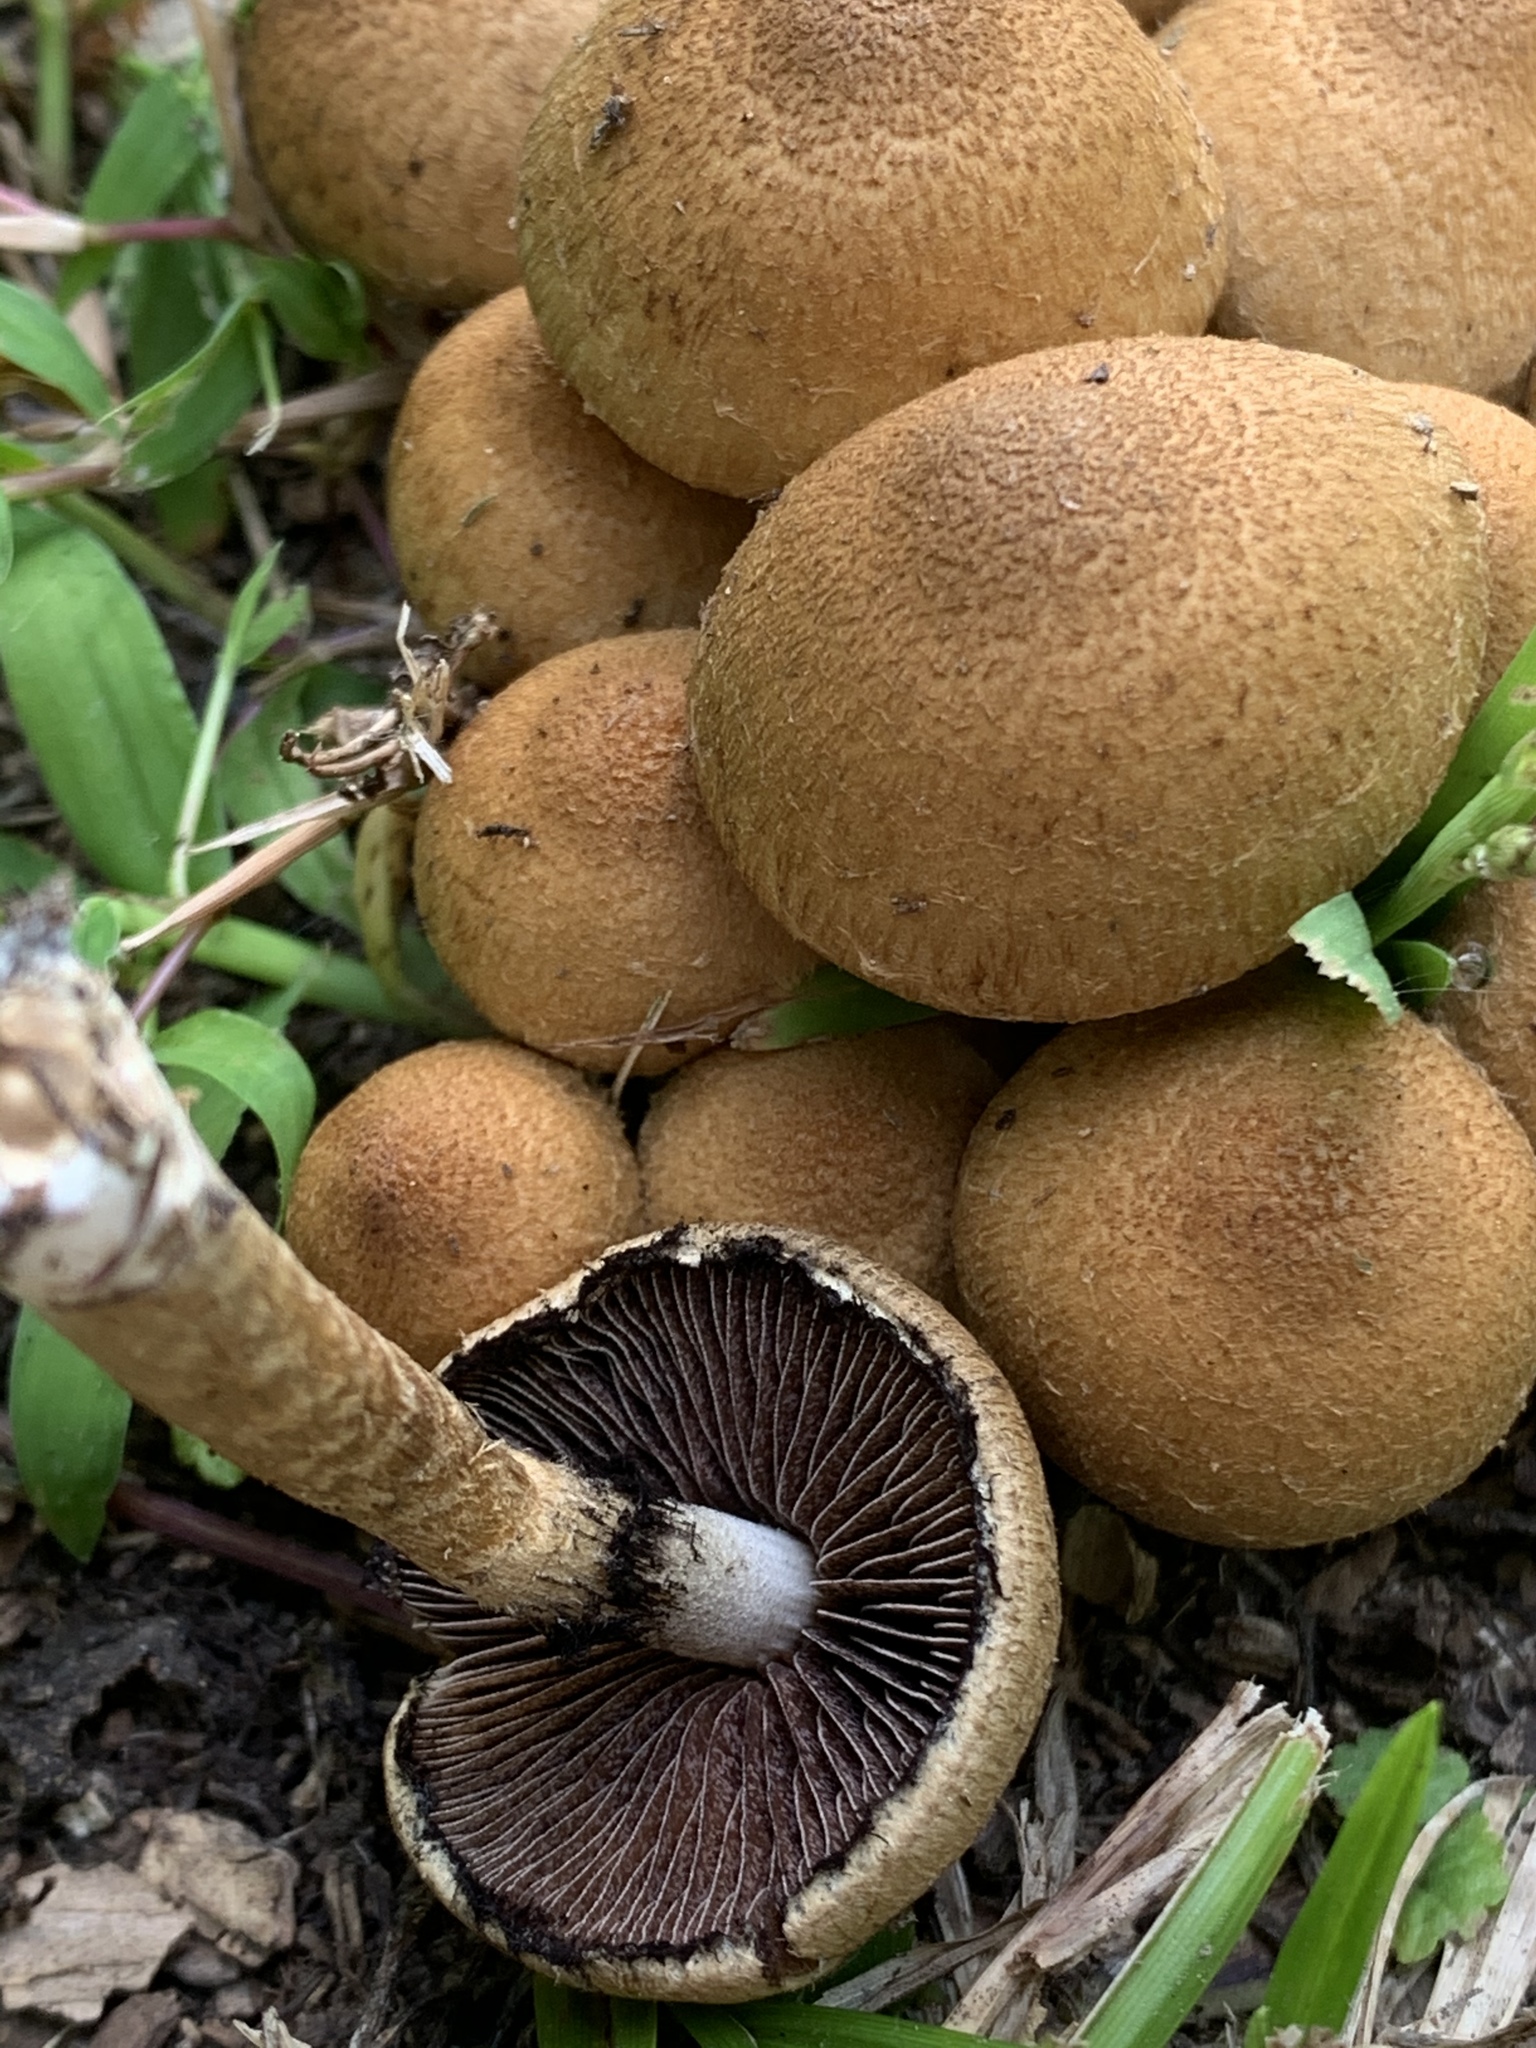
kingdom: Fungi
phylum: Basidiomycota
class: Agaricomycetes
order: Agaricales
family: Psathyrellaceae
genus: Lacrymaria
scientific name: Lacrymaria lacrymabunda
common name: Weeping widow
